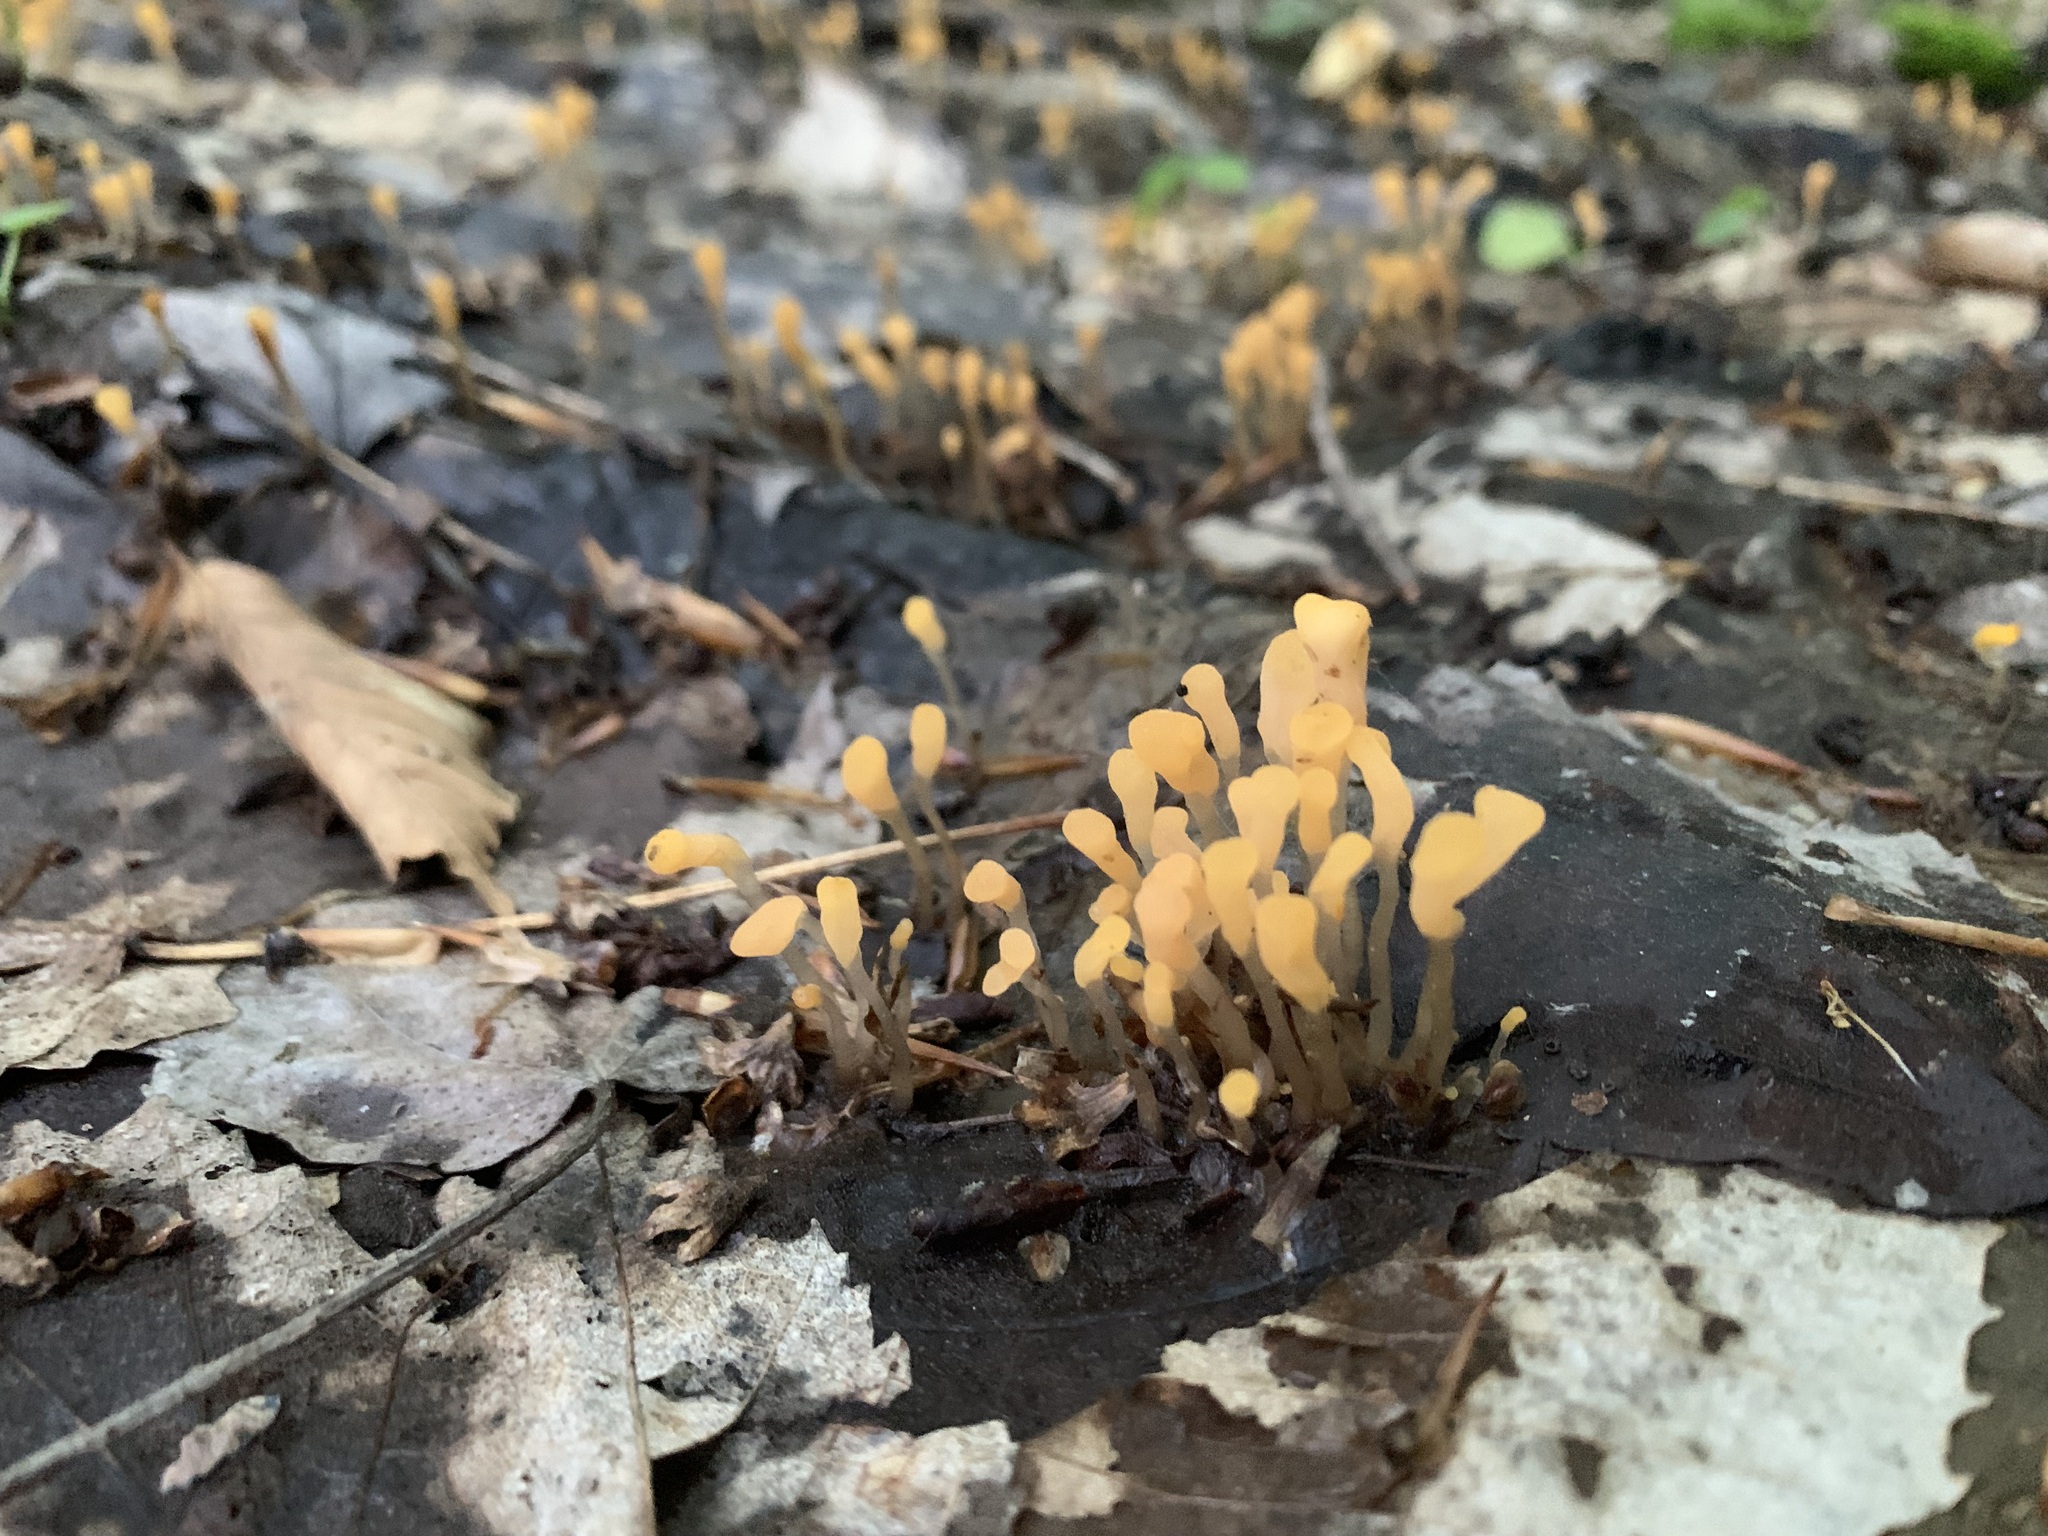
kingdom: Fungi
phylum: Ascomycota
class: Leotiomycetes
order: Helotiales
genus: Mitrula
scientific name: Mitrula
